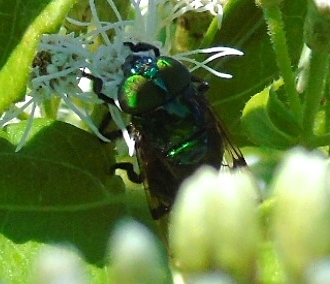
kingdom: Animalia
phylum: Arthropoda
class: Insecta
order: Diptera
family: Syrphidae
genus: Ornidia
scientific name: Ornidia obesa
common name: Syrphid fly
